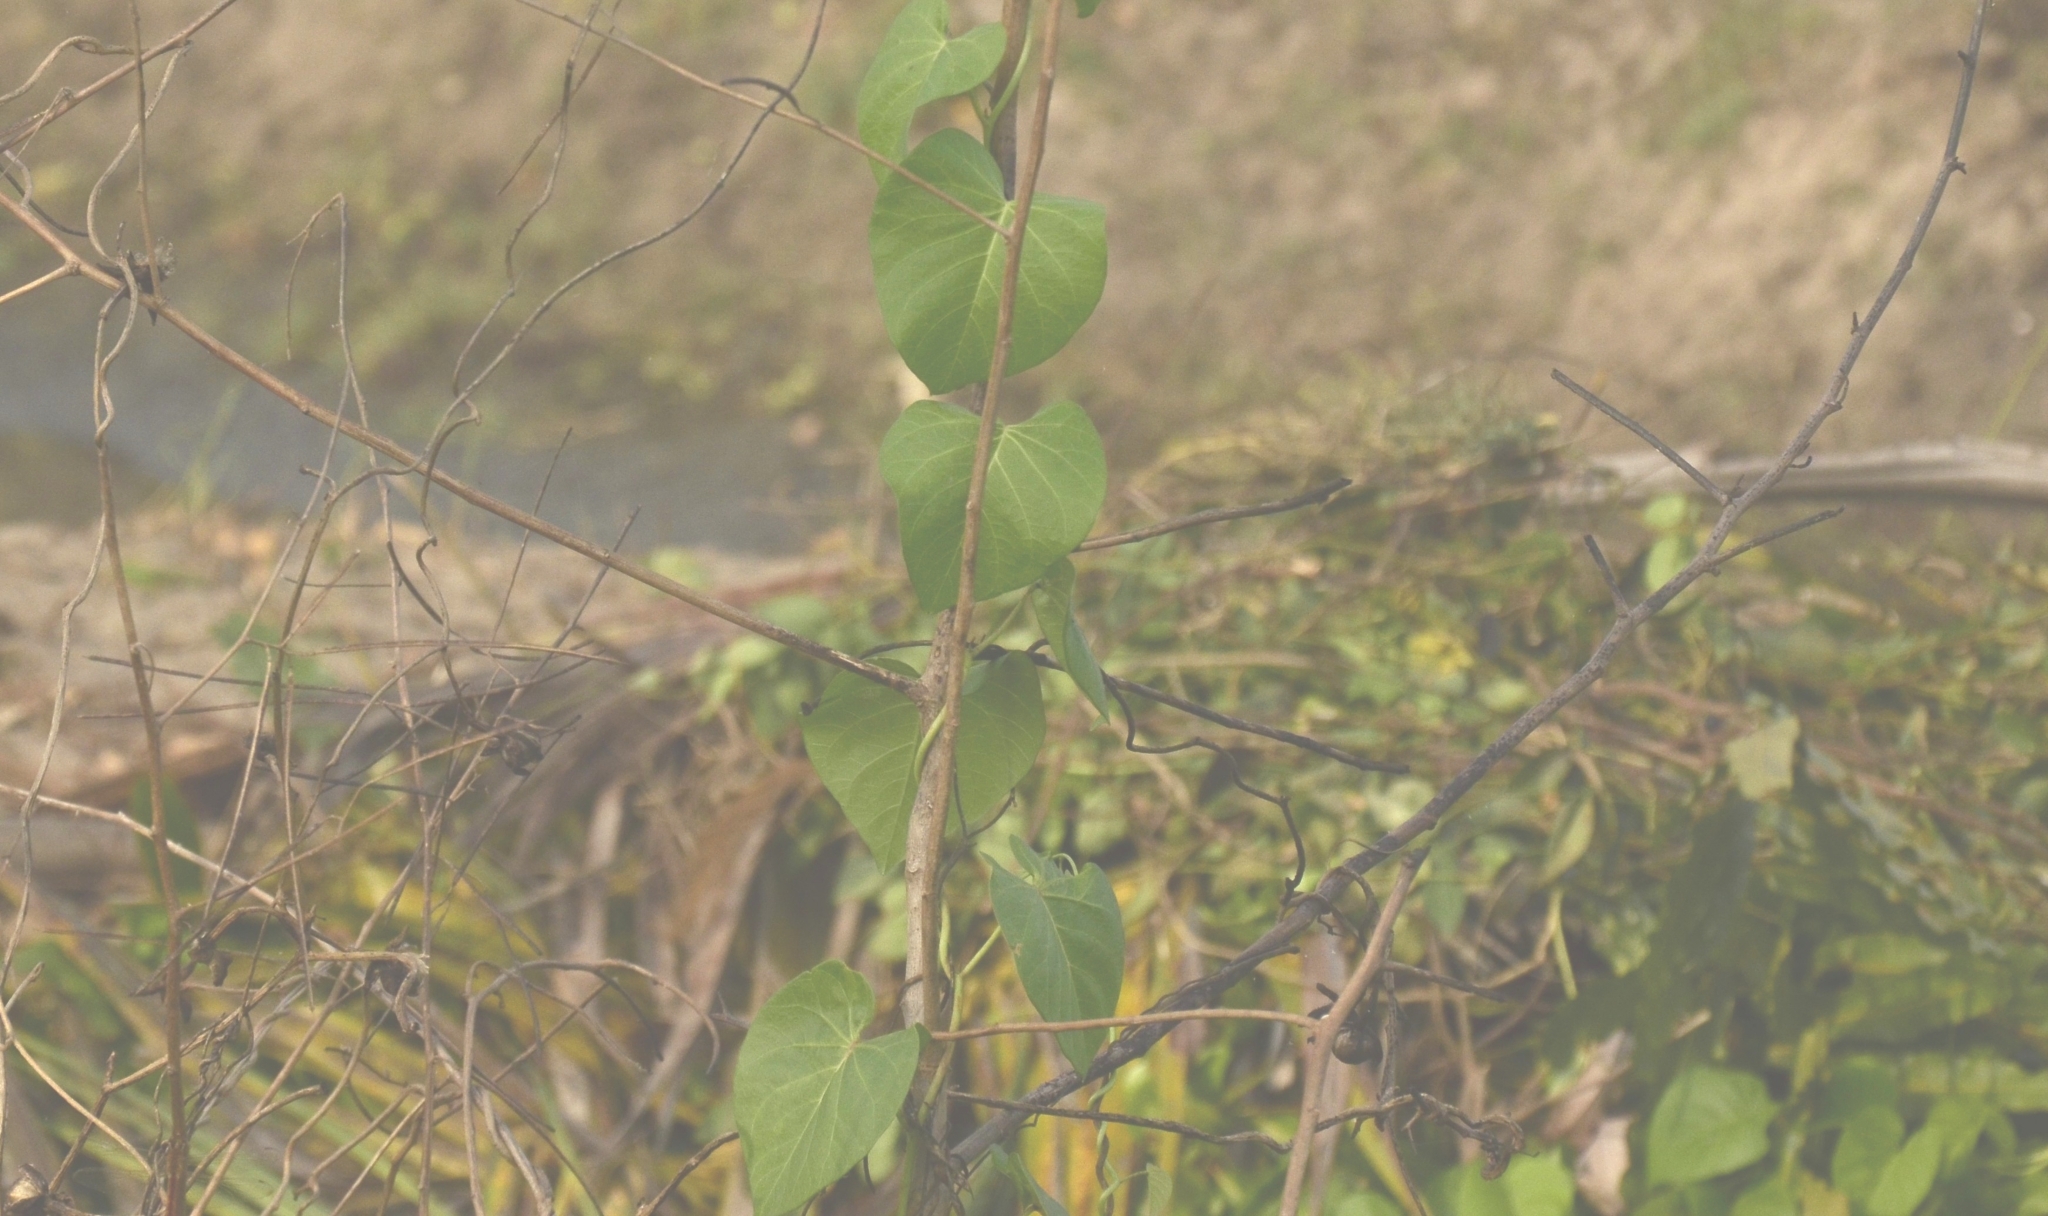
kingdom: Plantae
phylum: Tracheophyta
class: Magnoliopsida
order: Solanales
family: Convolvulaceae
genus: Ipomoea
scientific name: Ipomoea violacea
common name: Beach moonflower
